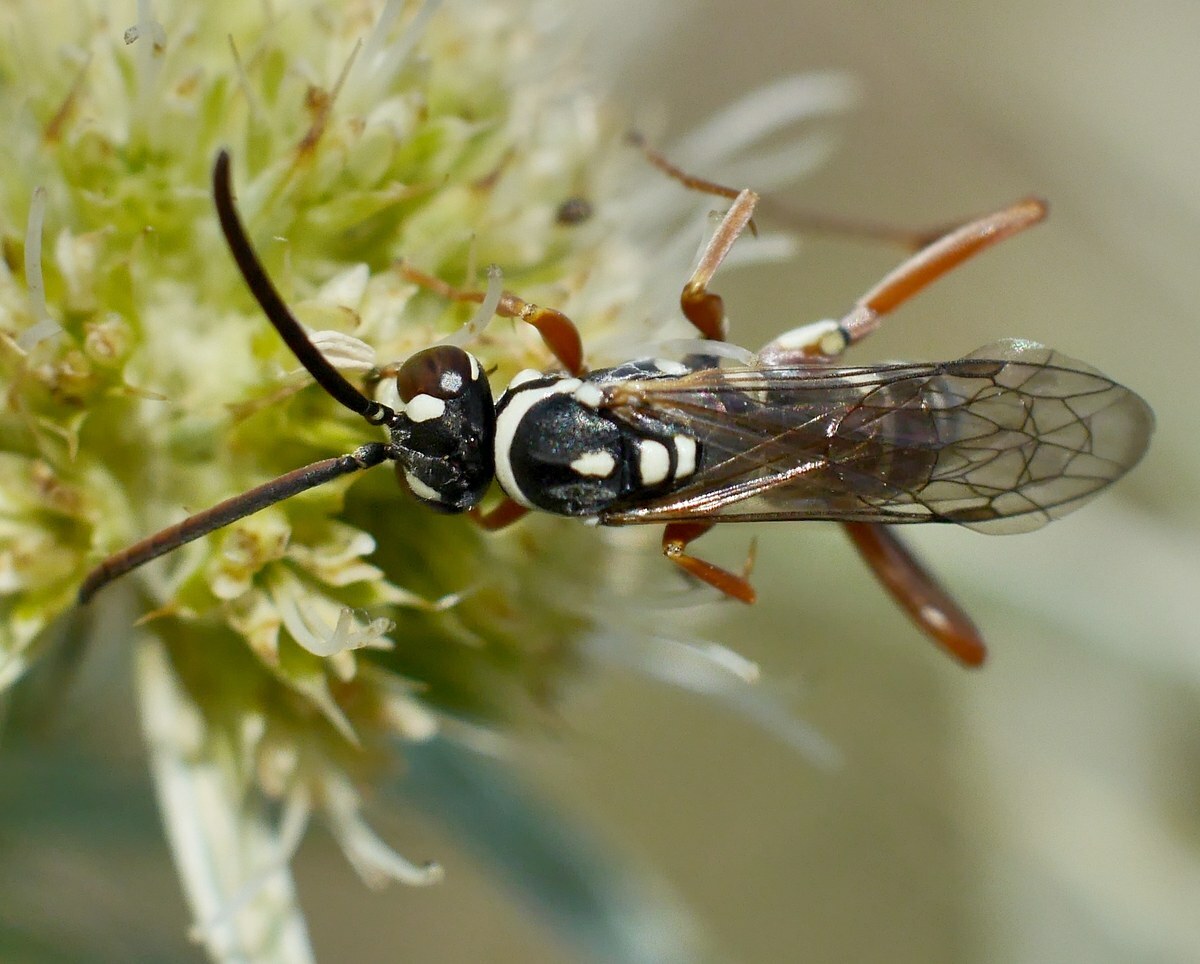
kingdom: Animalia
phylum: Arthropoda
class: Insecta
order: Hymenoptera
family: Pompilidae
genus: Ceropales
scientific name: Ceropales albicincta
